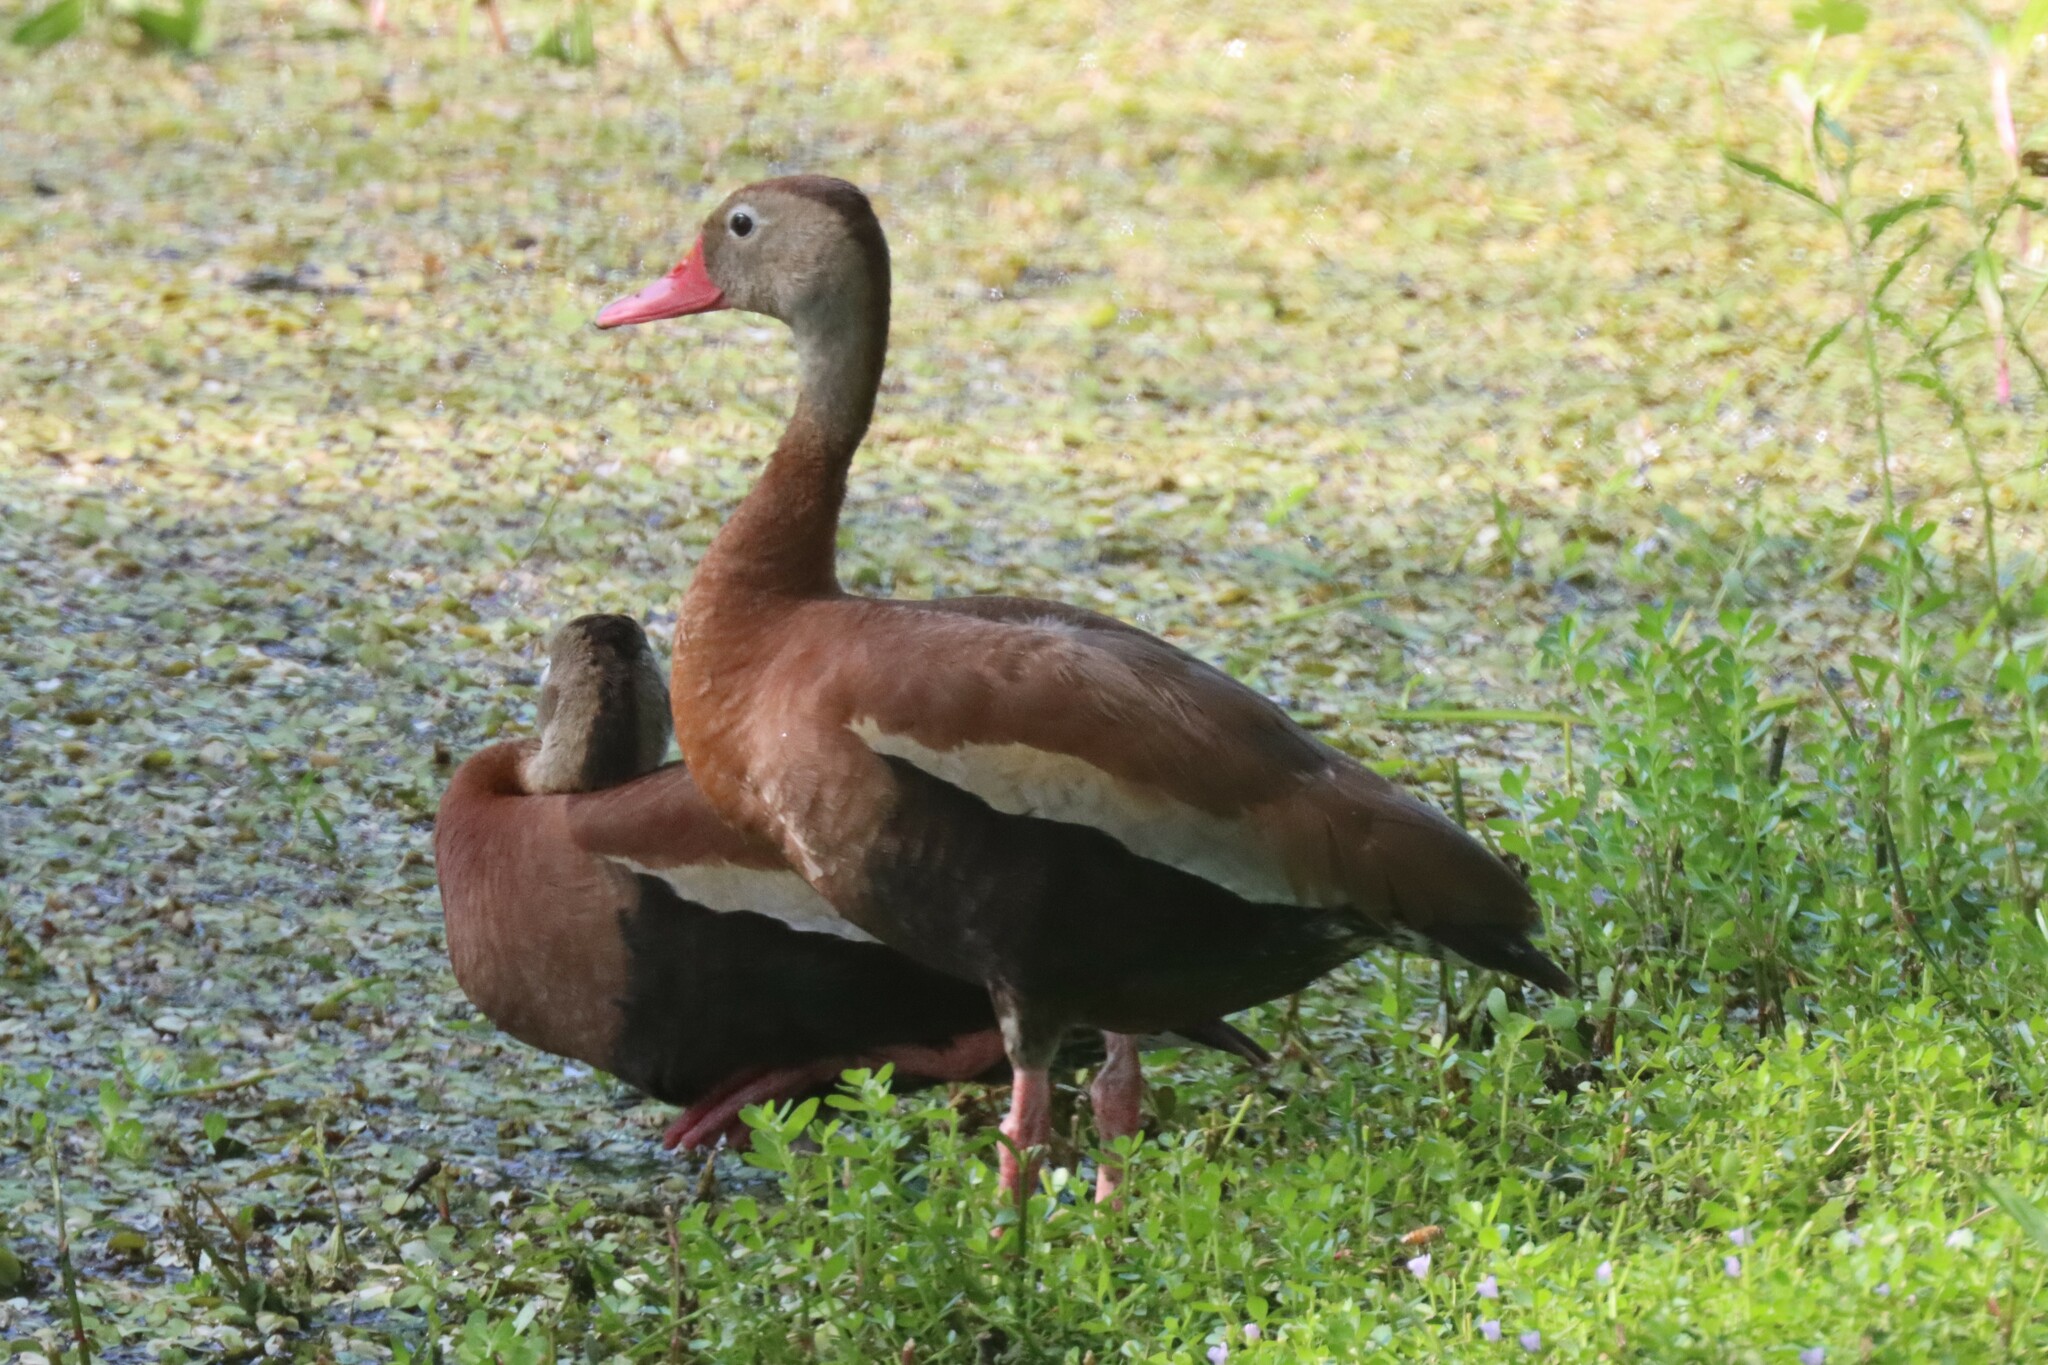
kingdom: Animalia
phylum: Chordata
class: Aves
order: Anseriformes
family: Anatidae
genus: Dendrocygna
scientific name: Dendrocygna autumnalis
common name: Black-bellied whistling duck
